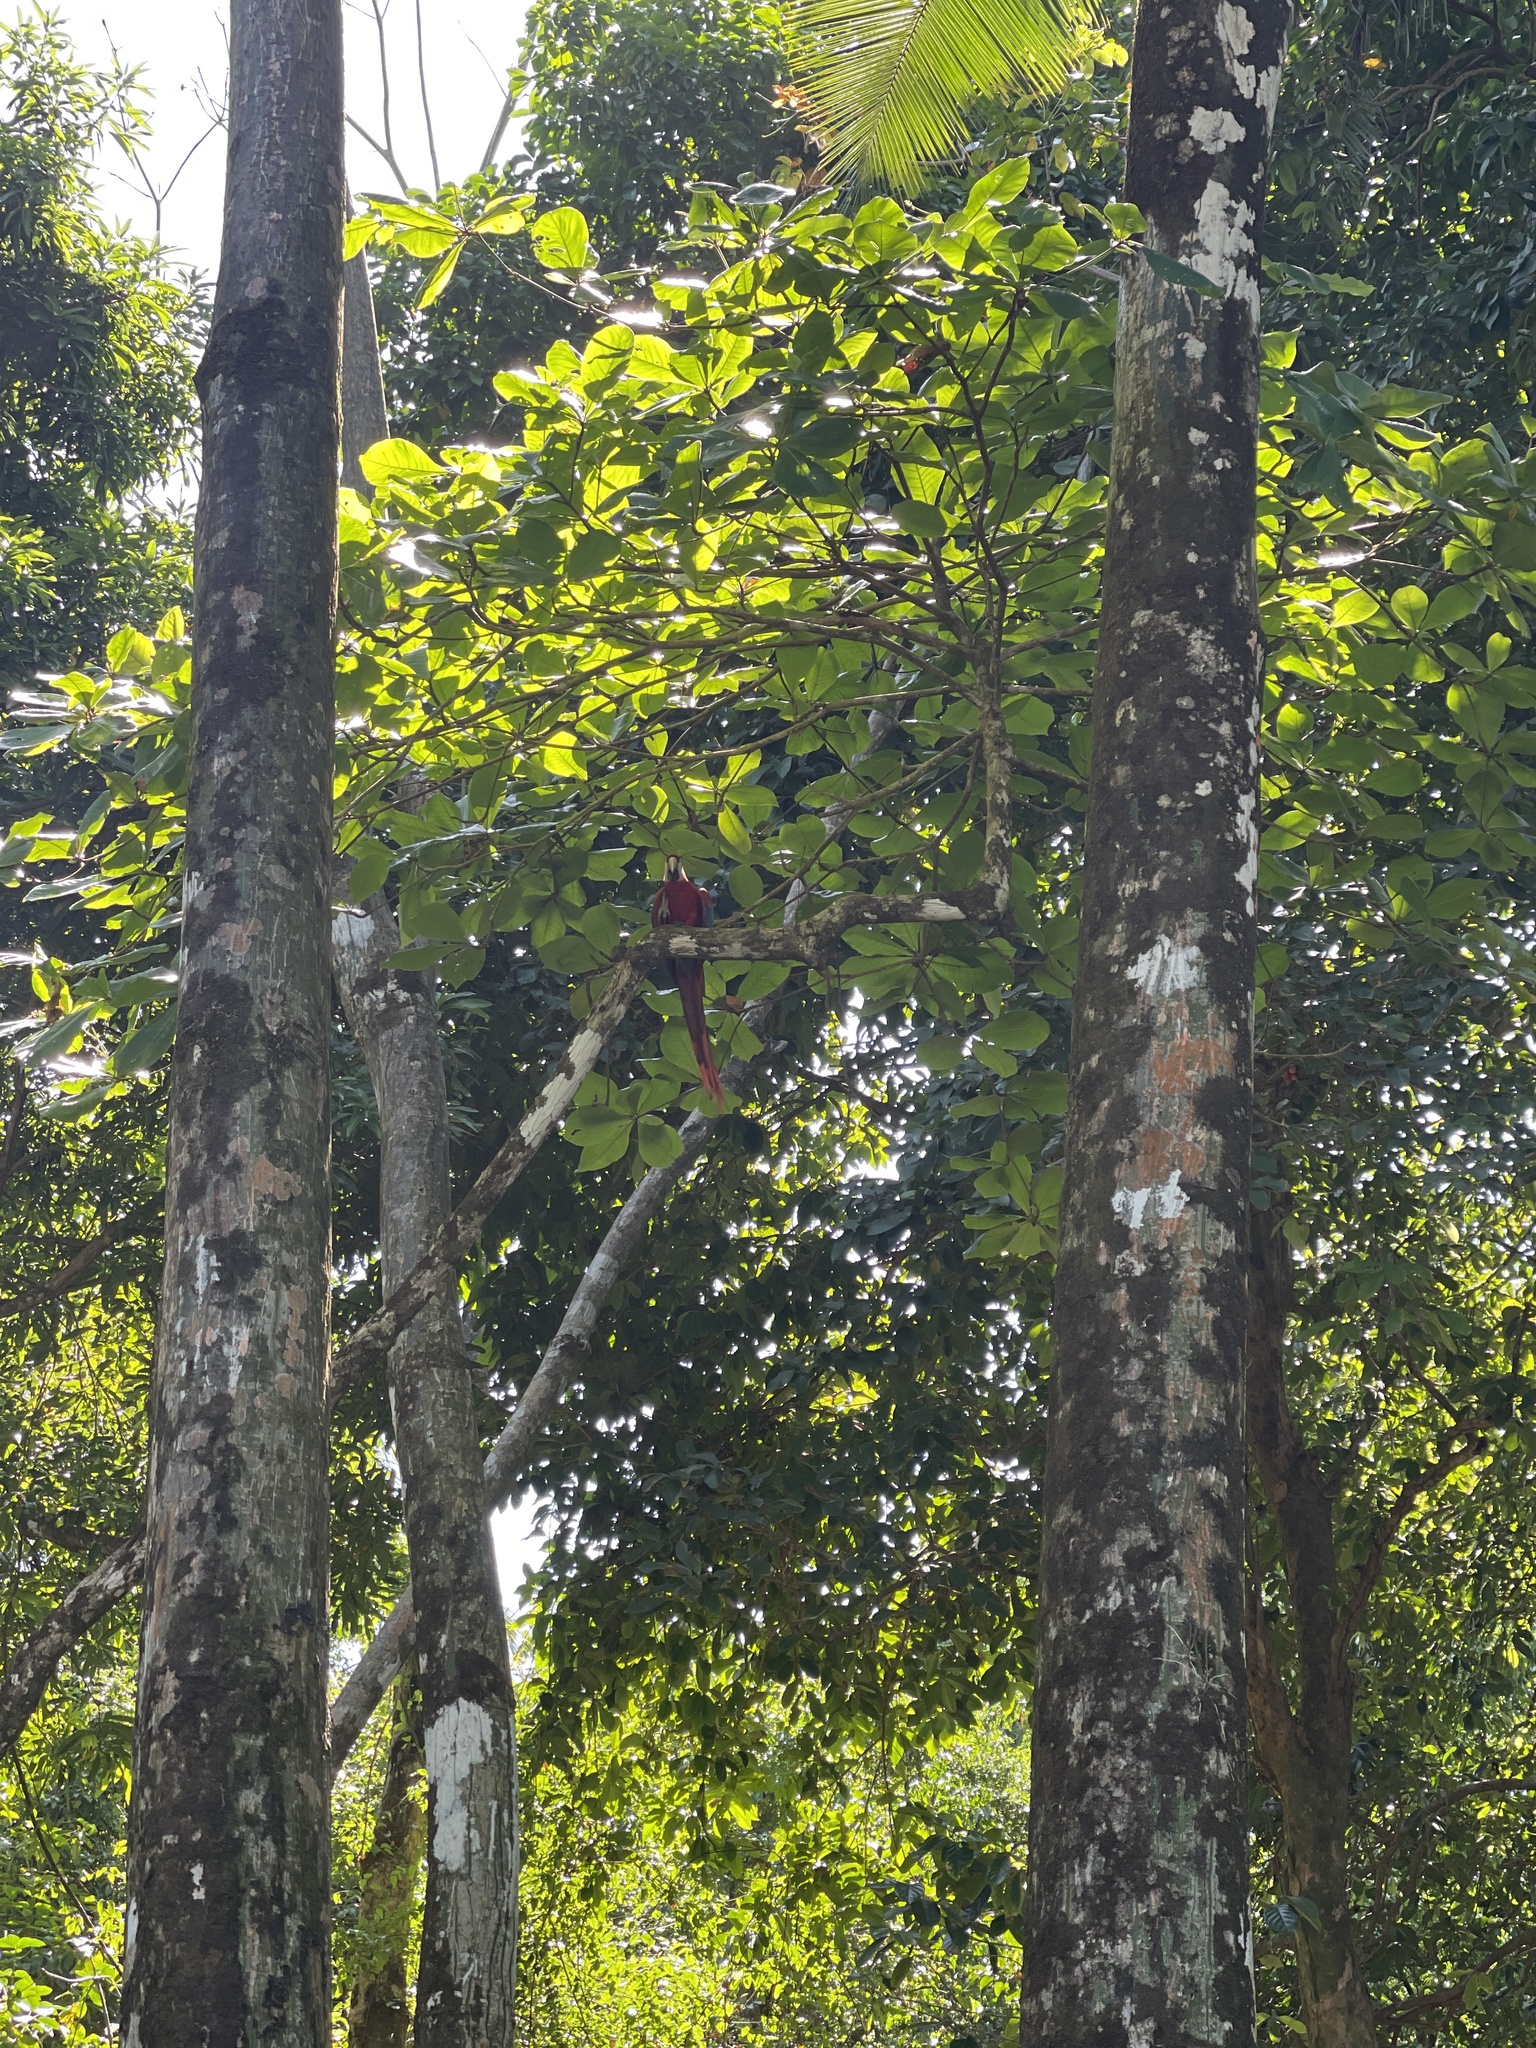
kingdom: Animalia
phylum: Chordata
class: Aves
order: Psittaciformes
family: Psittacidae
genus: Ara
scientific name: Ara macao
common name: Scarlet macaw
